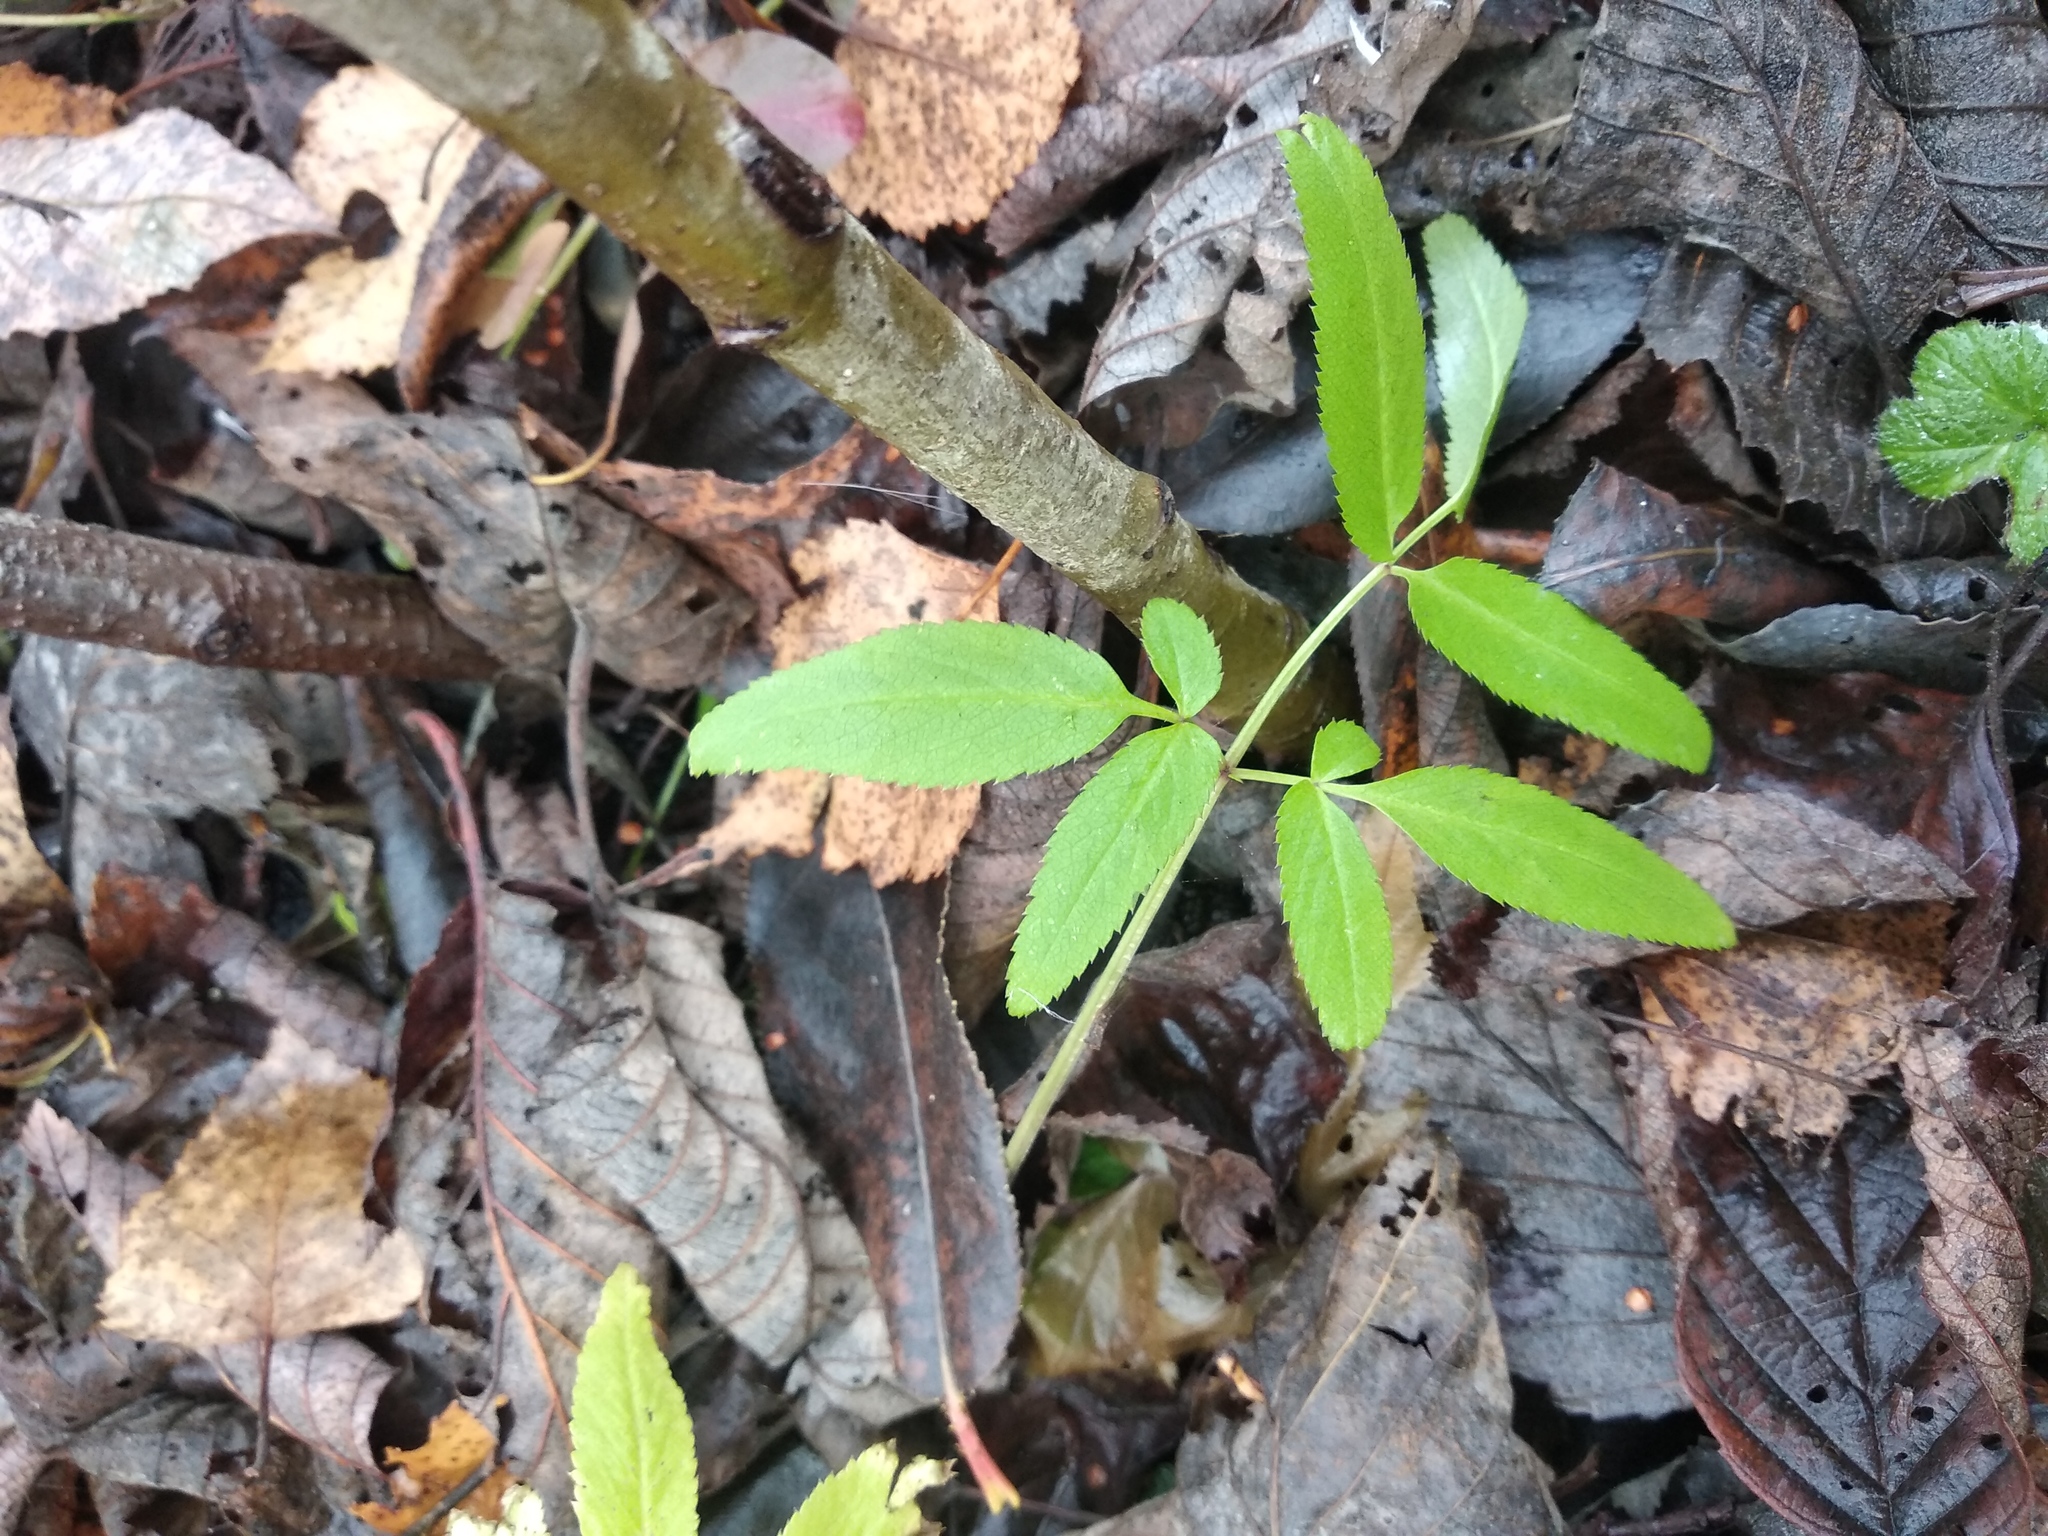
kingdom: Plantae
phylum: Tracheophyta
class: Magnoliopsida
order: Apiales
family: Apiaceae
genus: Angelica
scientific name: Angelica sylvestris
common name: Wild angelica
